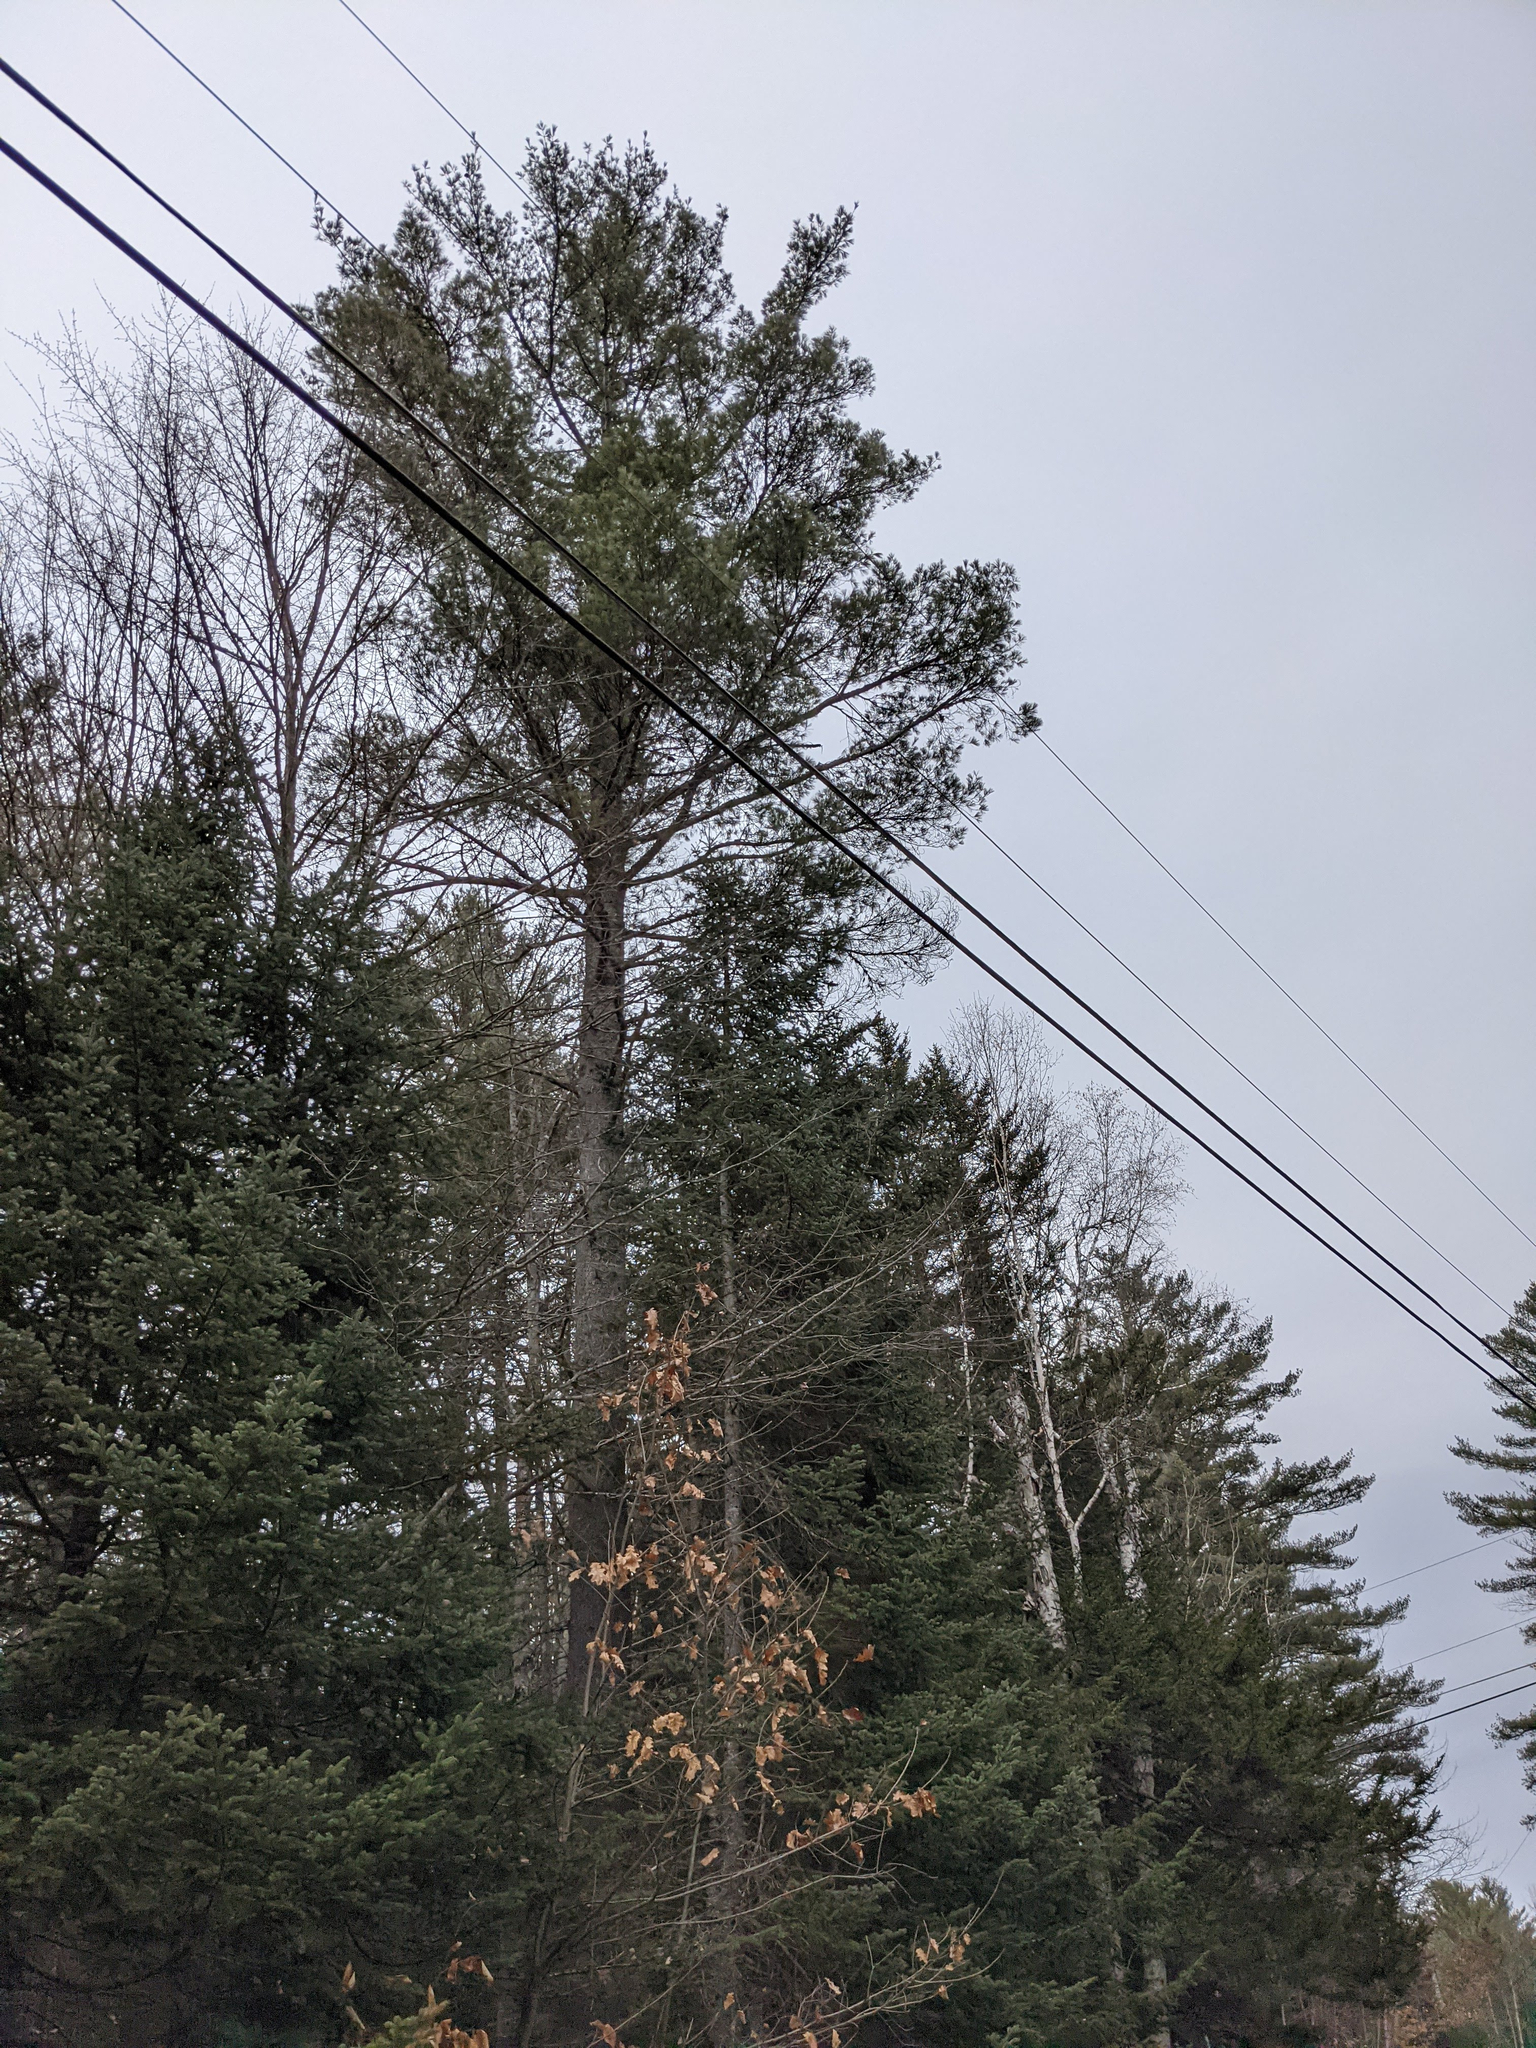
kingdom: Plantae
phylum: Tracheophyta
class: Pinopsida
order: Pinales
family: Pinaceae
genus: Pinus
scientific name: Pinus strobus
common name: Weymouth pine
